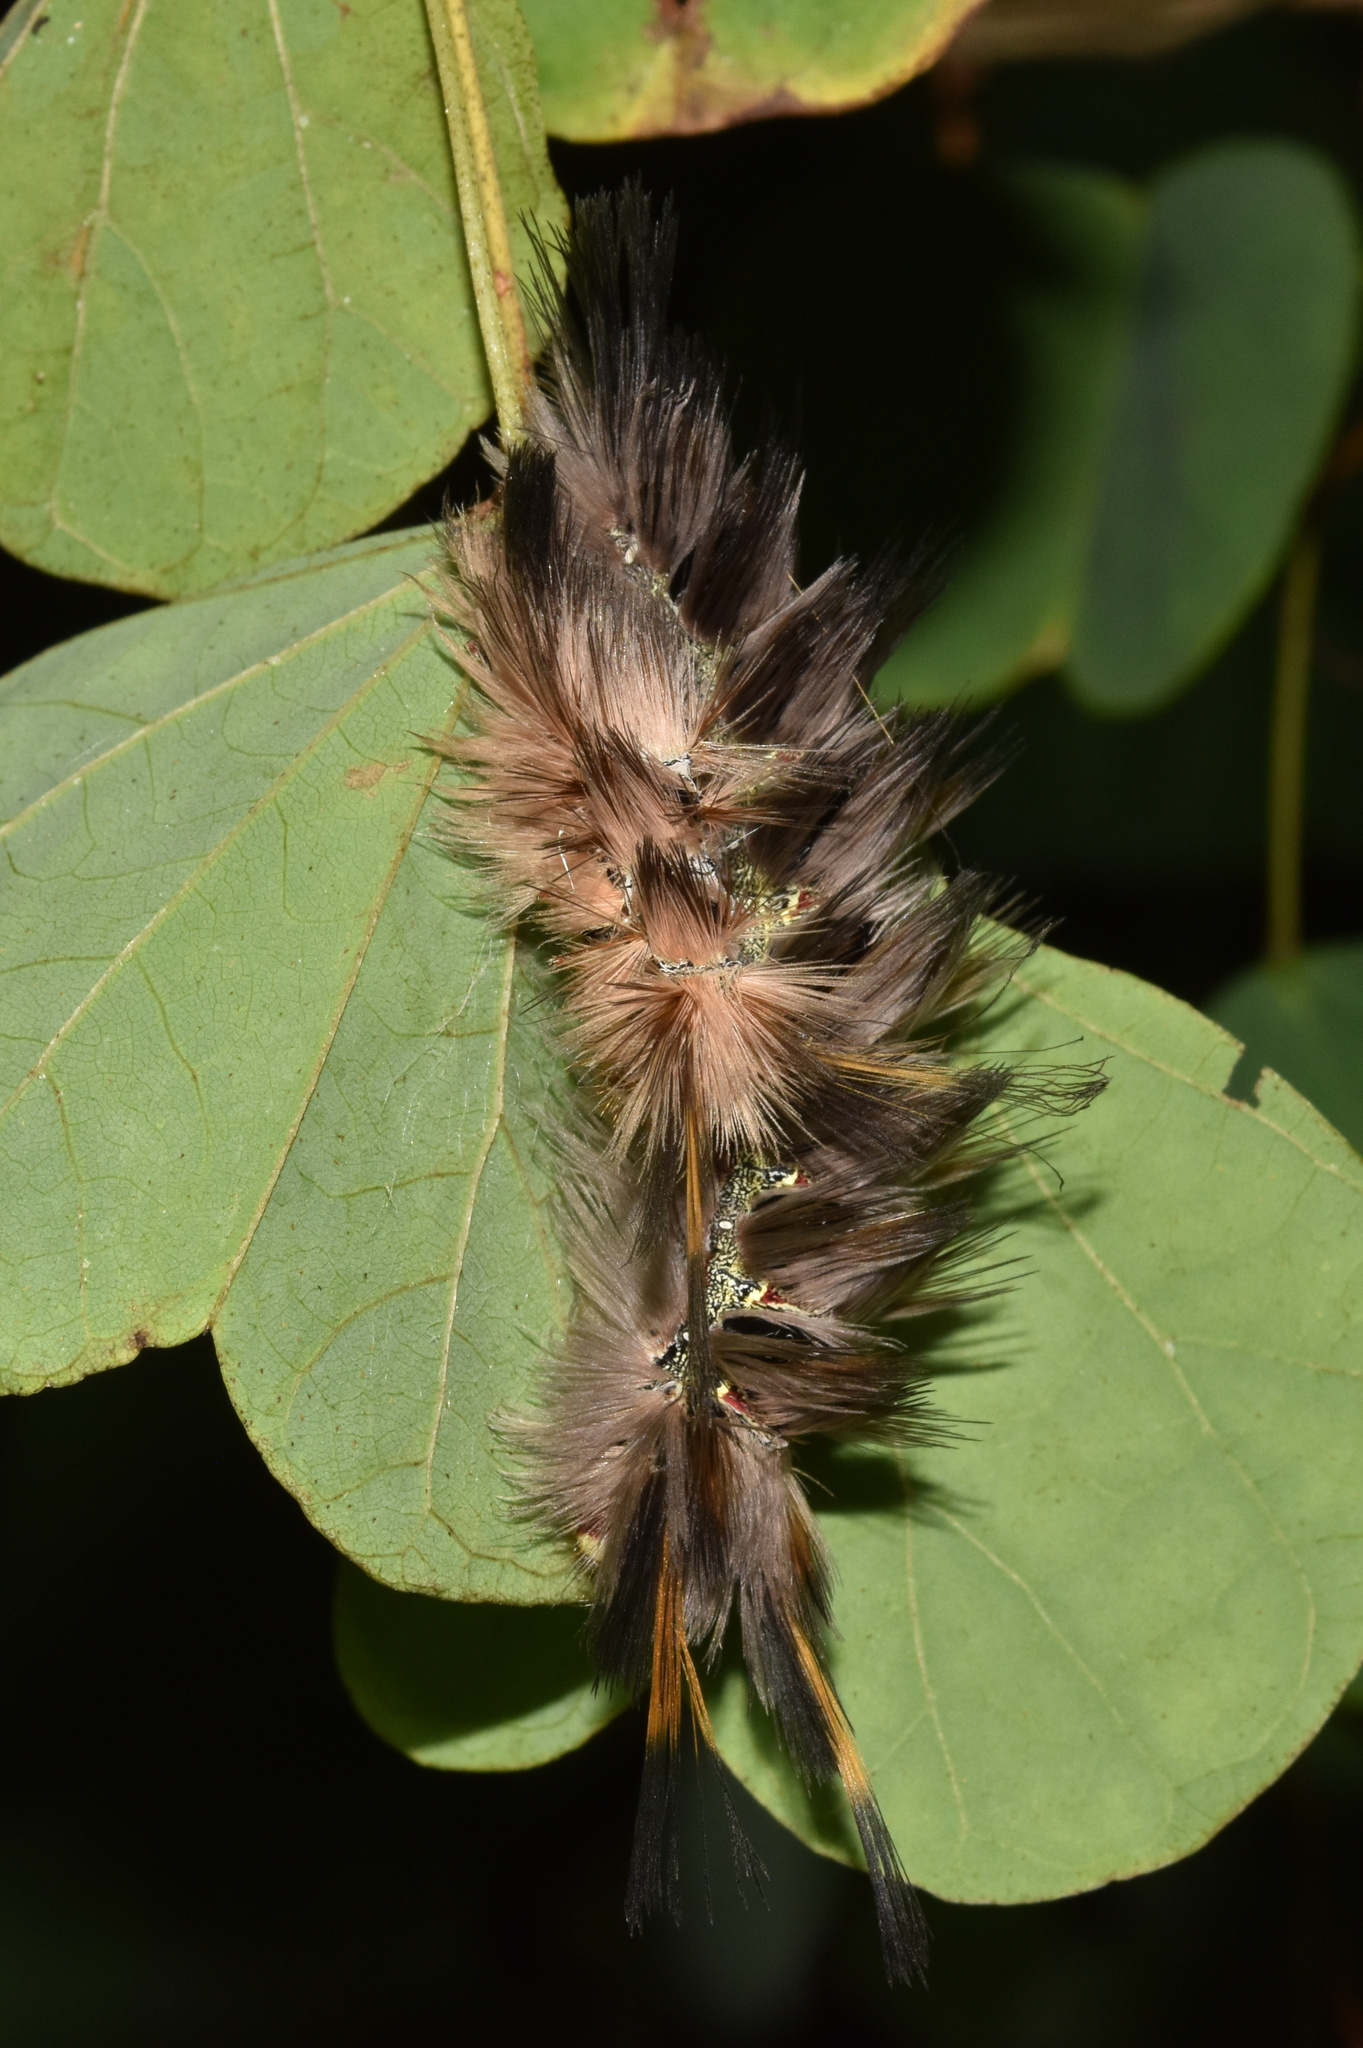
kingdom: Animalia
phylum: Arthropoda
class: Insecta
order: Lepidoptera
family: Eupterotidae
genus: Lichenopteryx
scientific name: Lichenopteryx despecta
